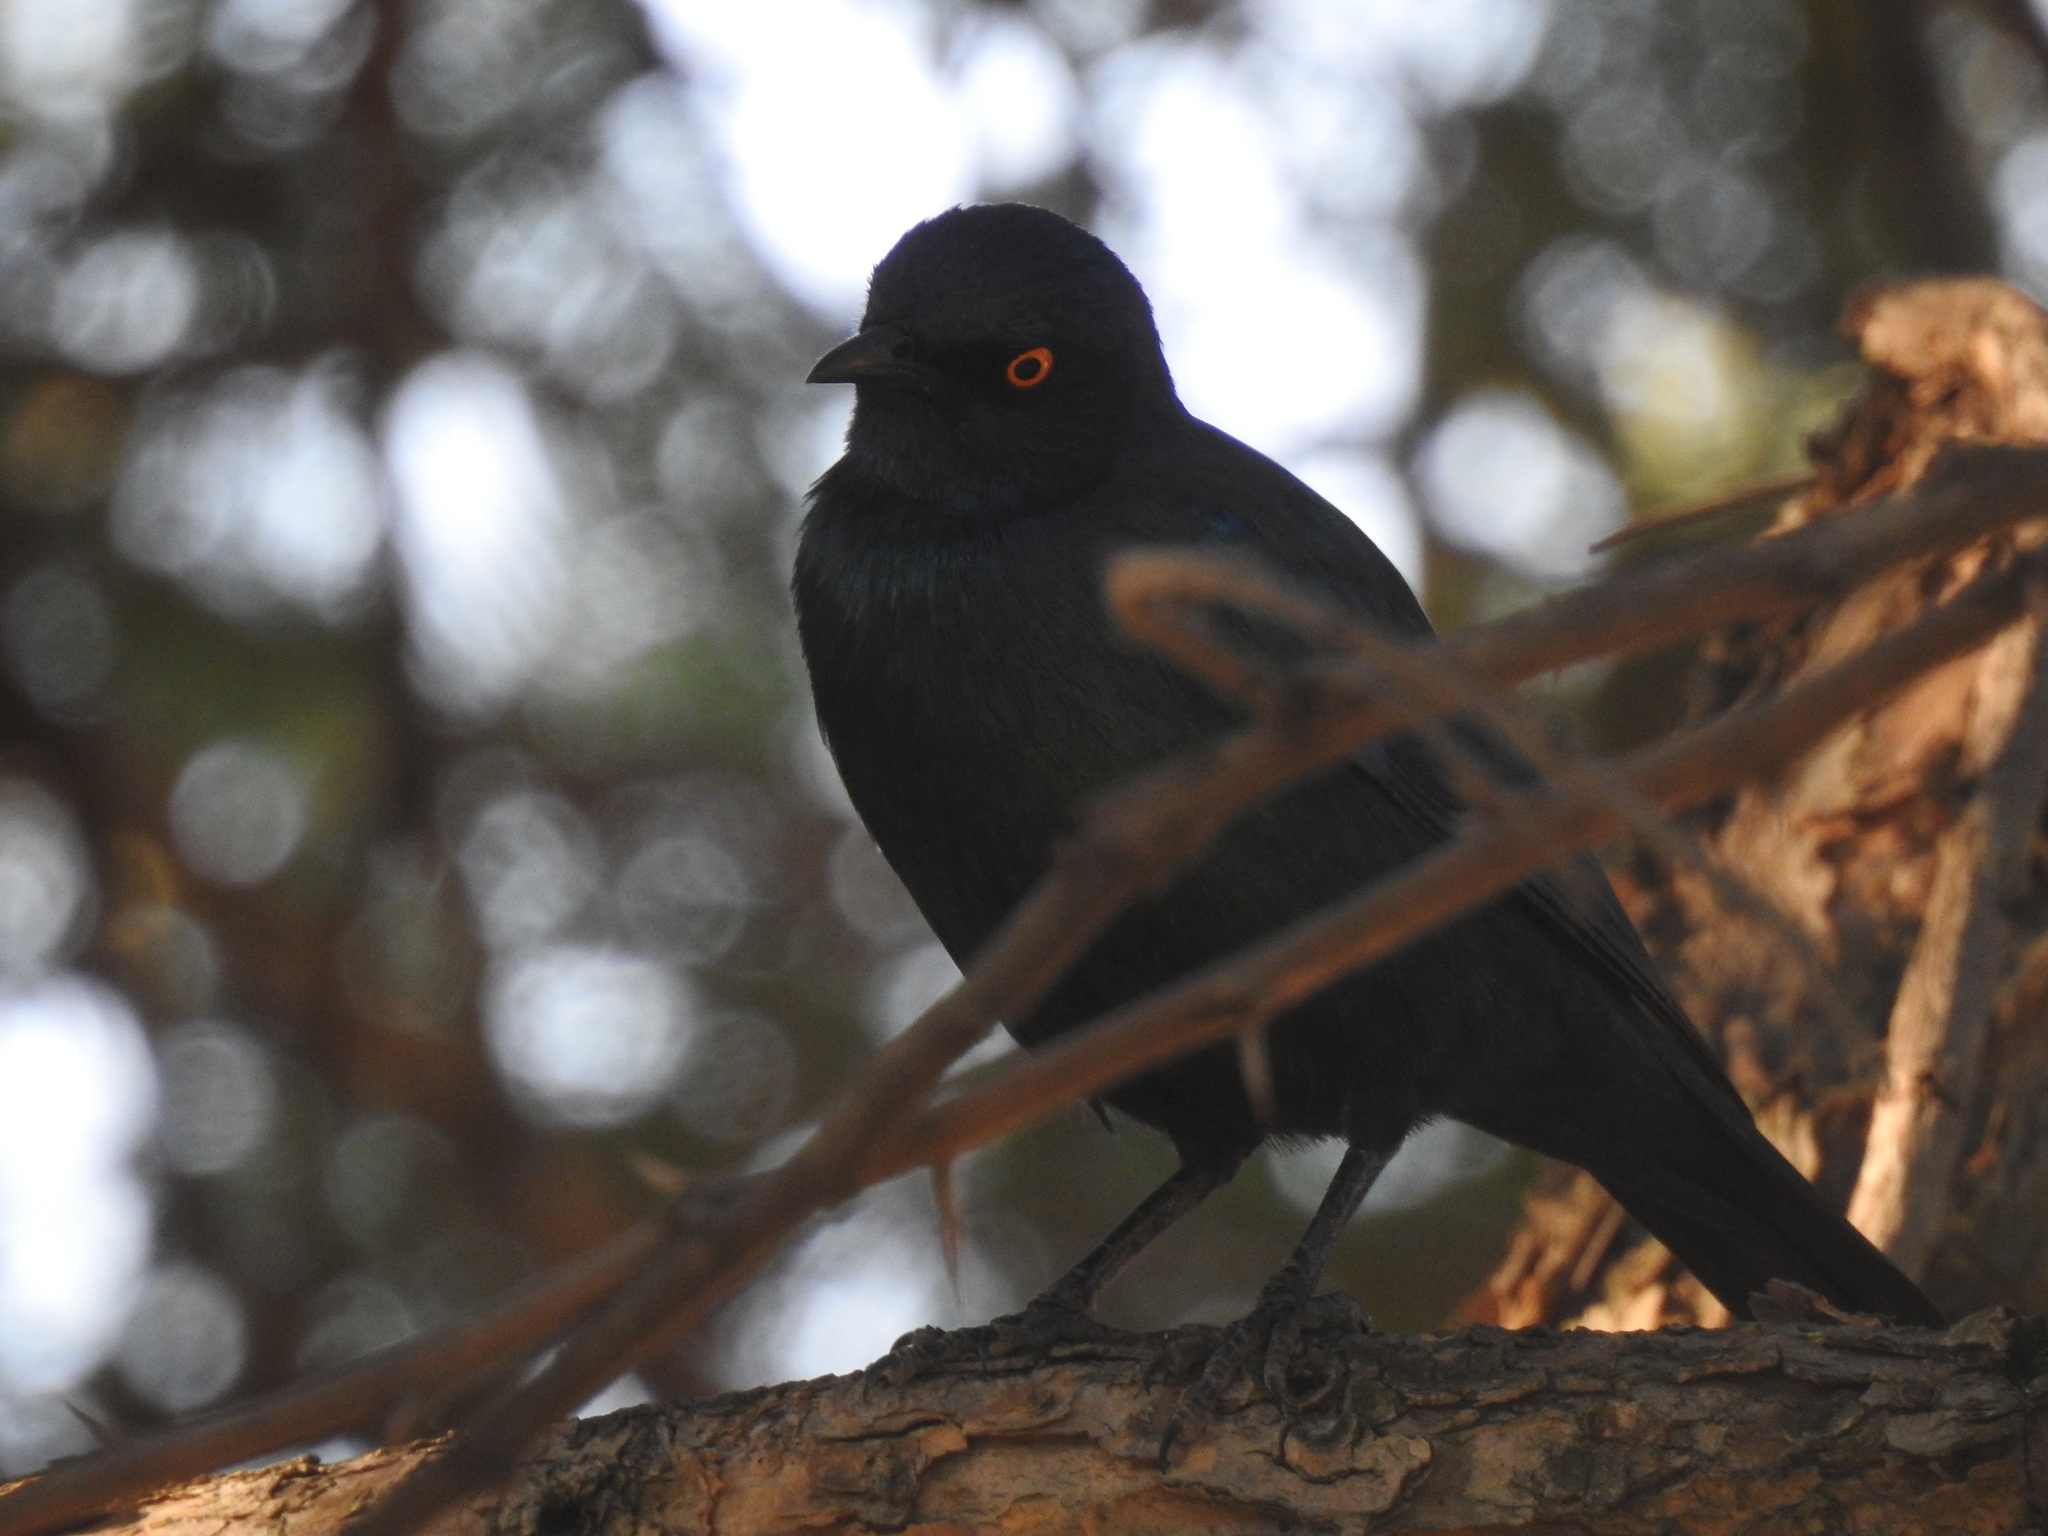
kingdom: Animalia
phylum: Chordata
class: Aves
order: Passeriformes
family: Sturnidae
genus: Lamprotornis
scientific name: Lamprotornis nitens
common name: Cape starling
